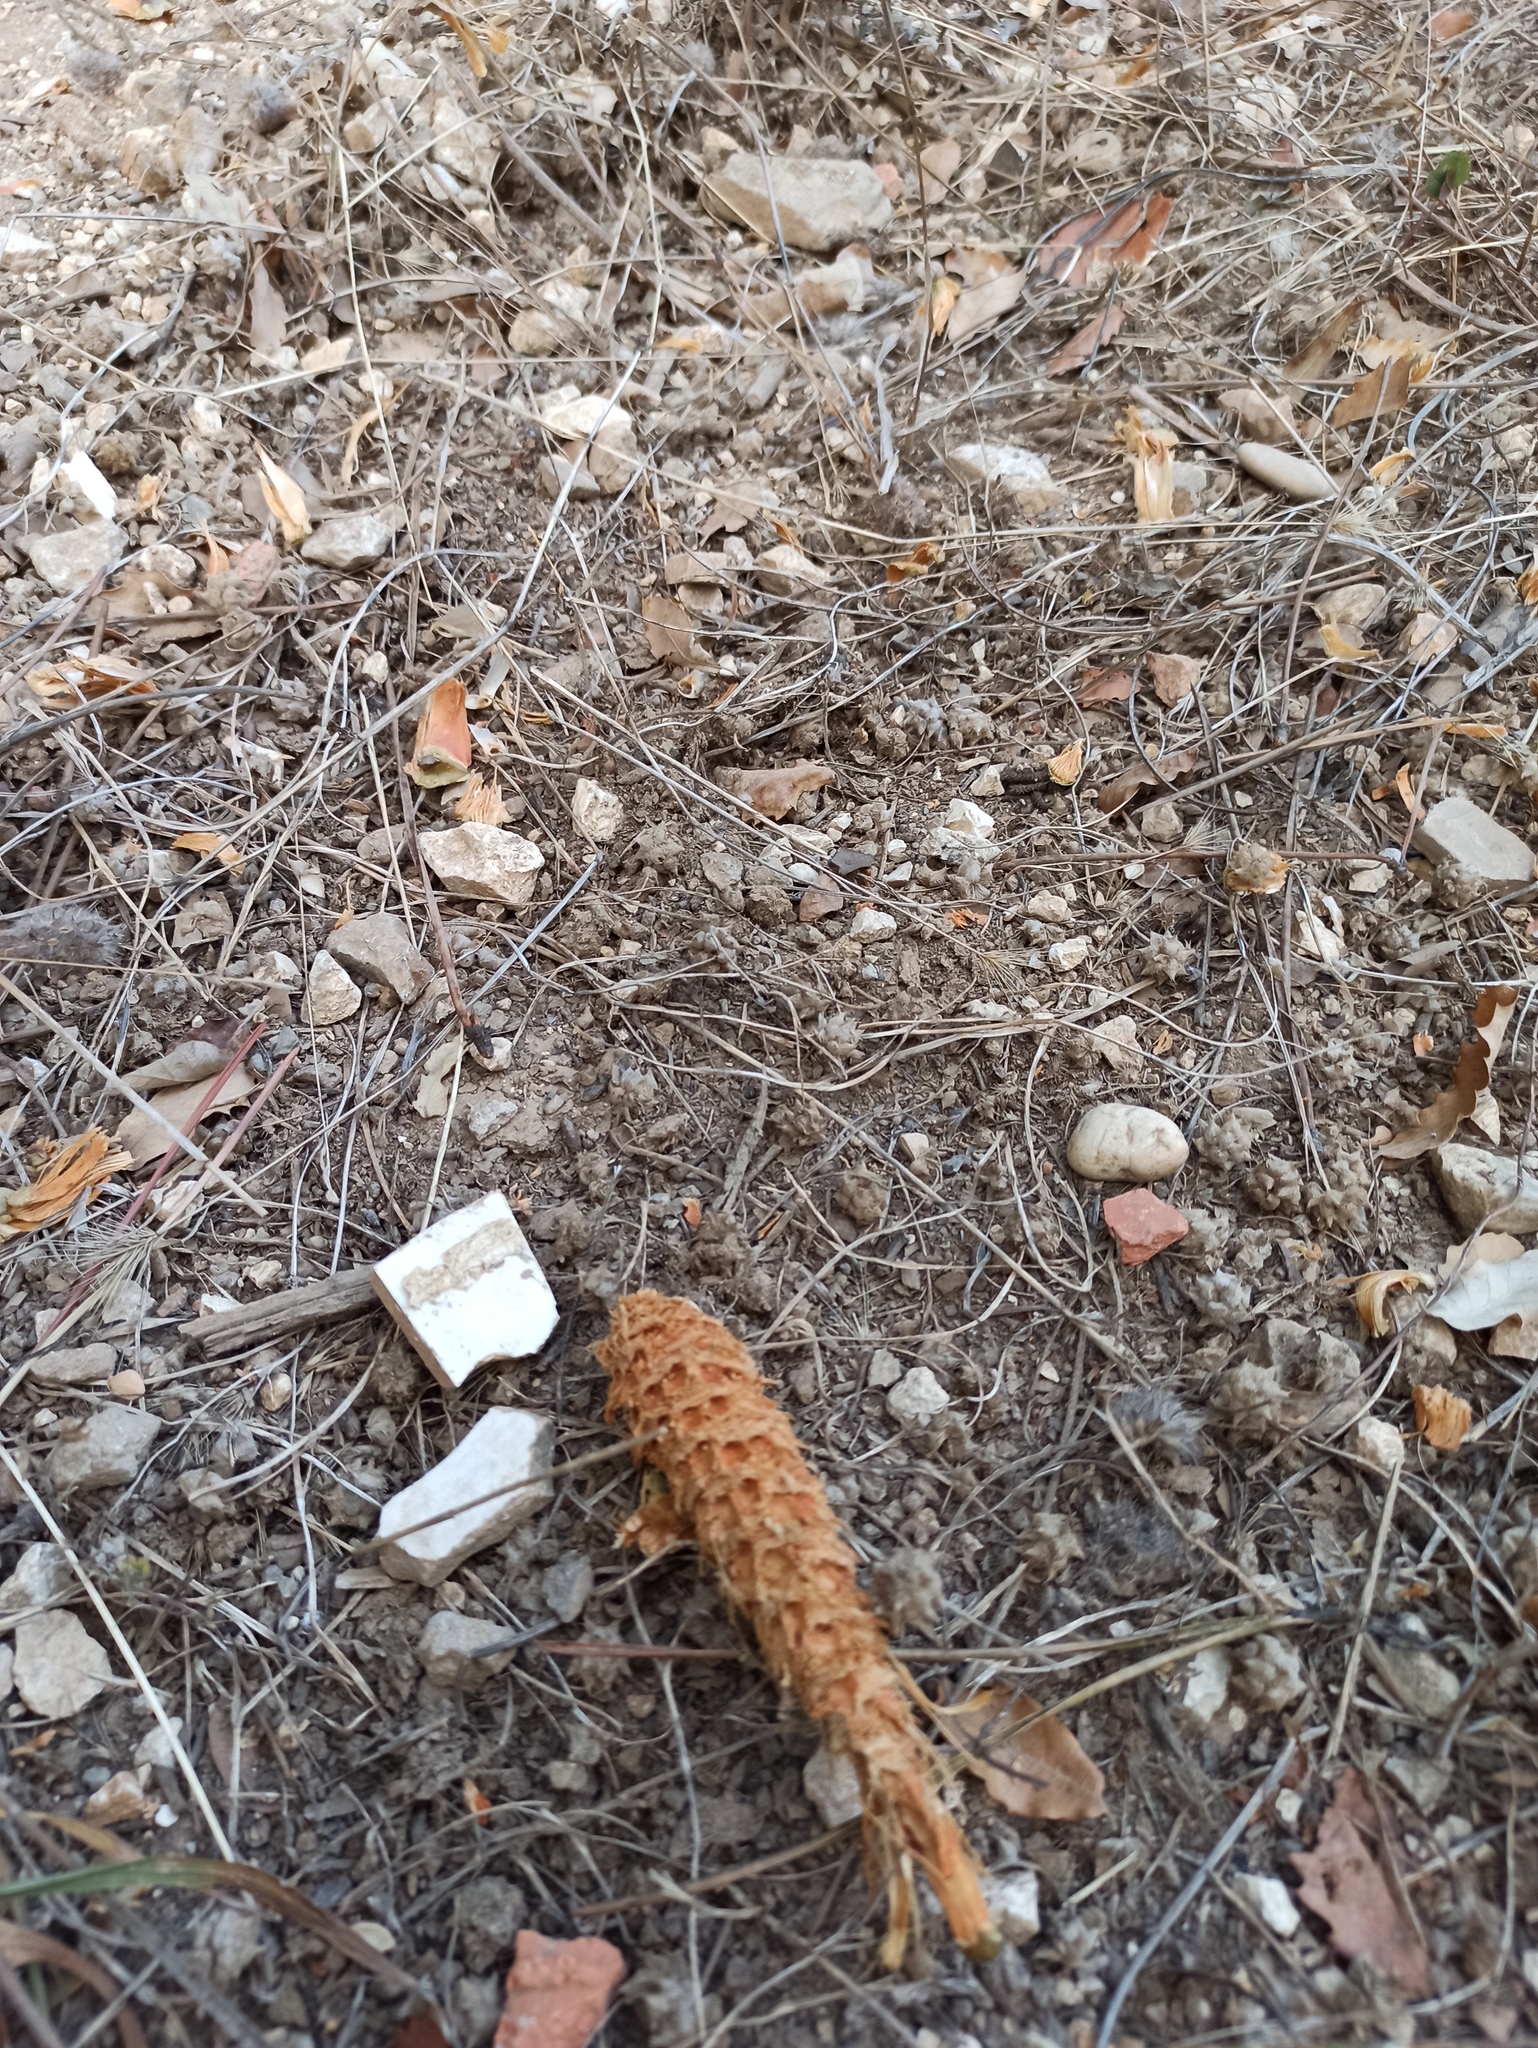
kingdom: Animalia
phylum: Chordata
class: Mammalia
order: Rodentia
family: Sciuridae
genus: Sciurus
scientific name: Sciurus vulgaris
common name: Eurasian red squirrel
